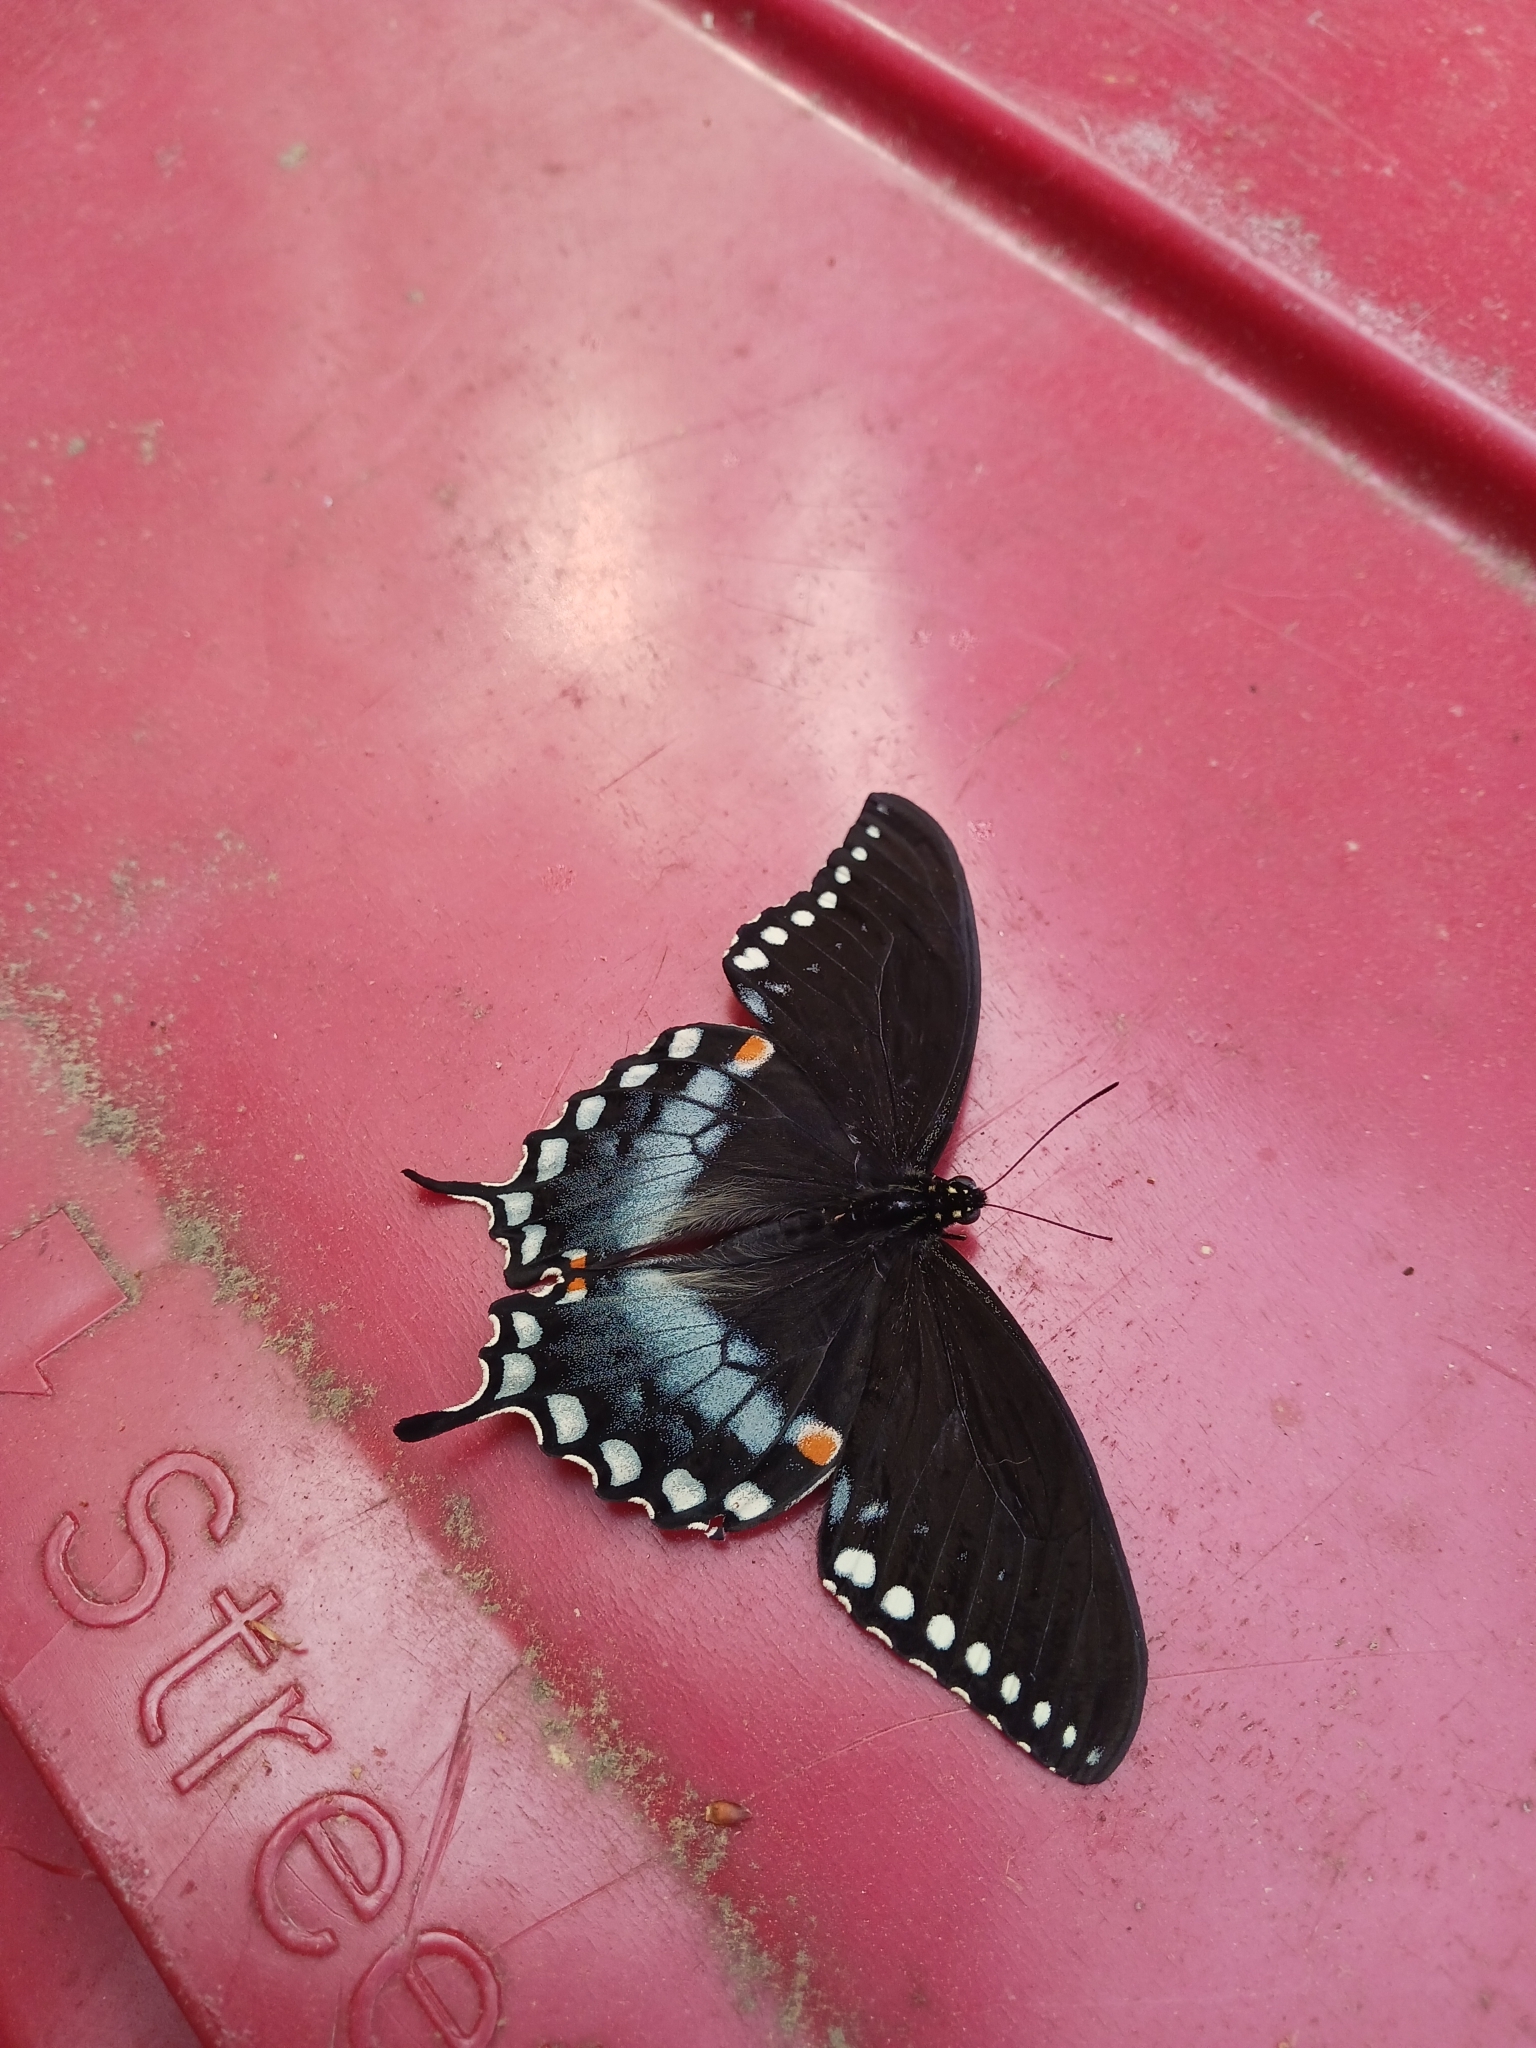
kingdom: Animalia
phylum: Arthropoda
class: Insecta
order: Lepidoptera
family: Papilionidae
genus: Papilio
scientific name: Papilio troilus
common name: Spicebush swallowtail
